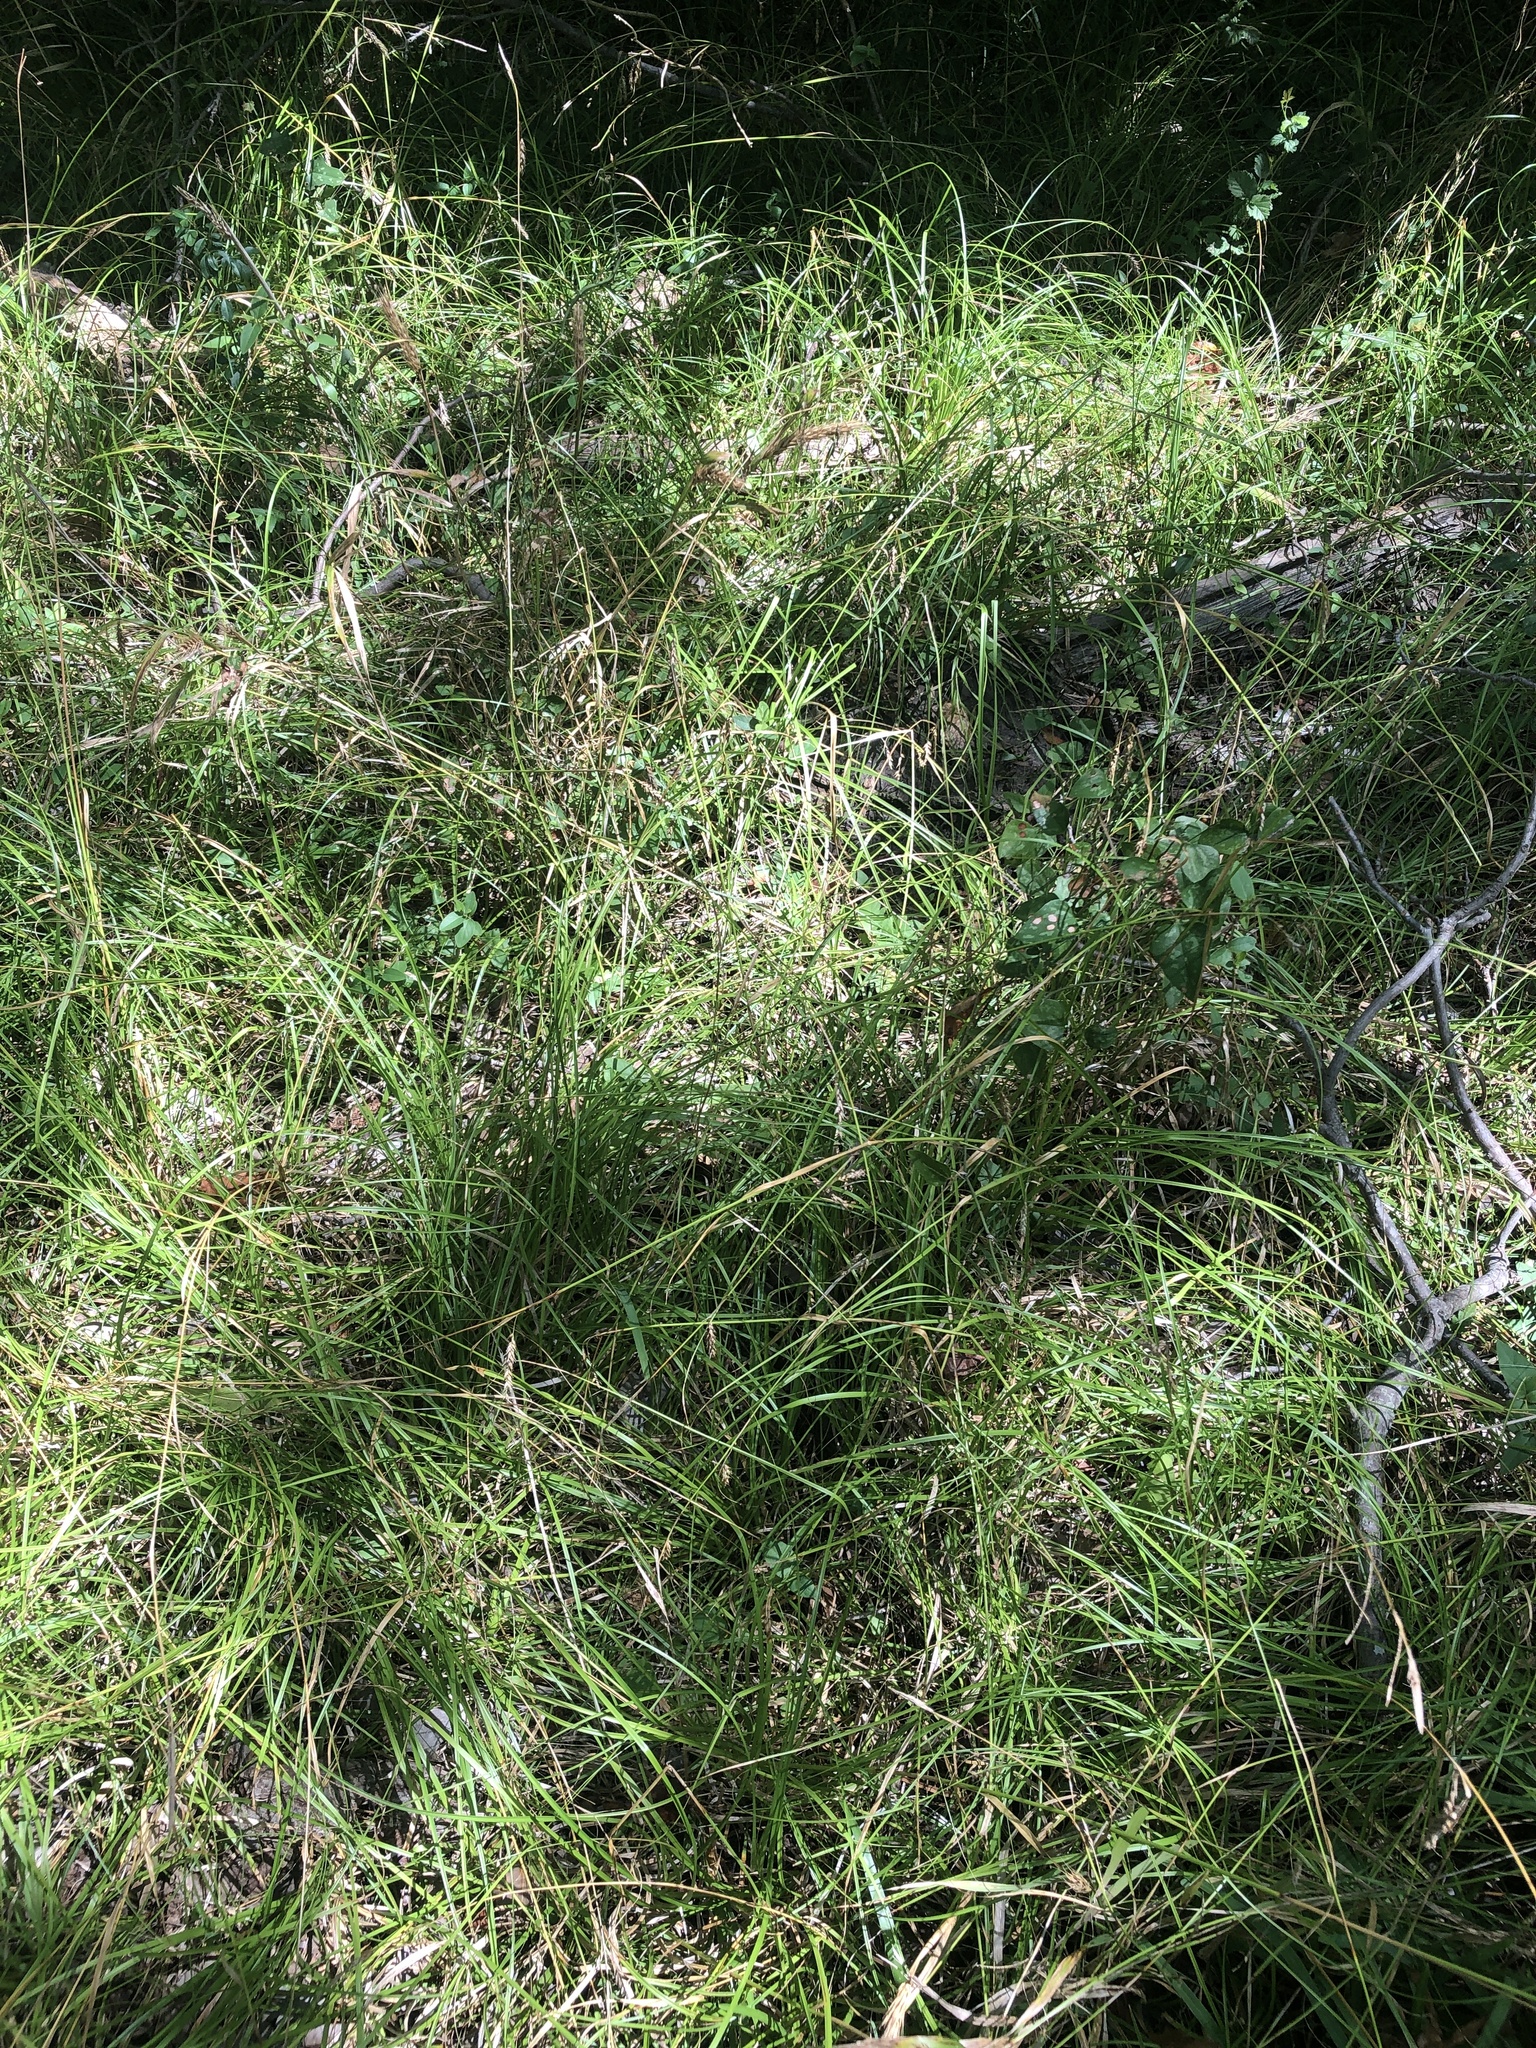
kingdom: Plantae
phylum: Tracheophyta
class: Liliopsida
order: Poales
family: Cyperaceae
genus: Carex
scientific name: Carex cherokeensis
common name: Cherokee sedge
